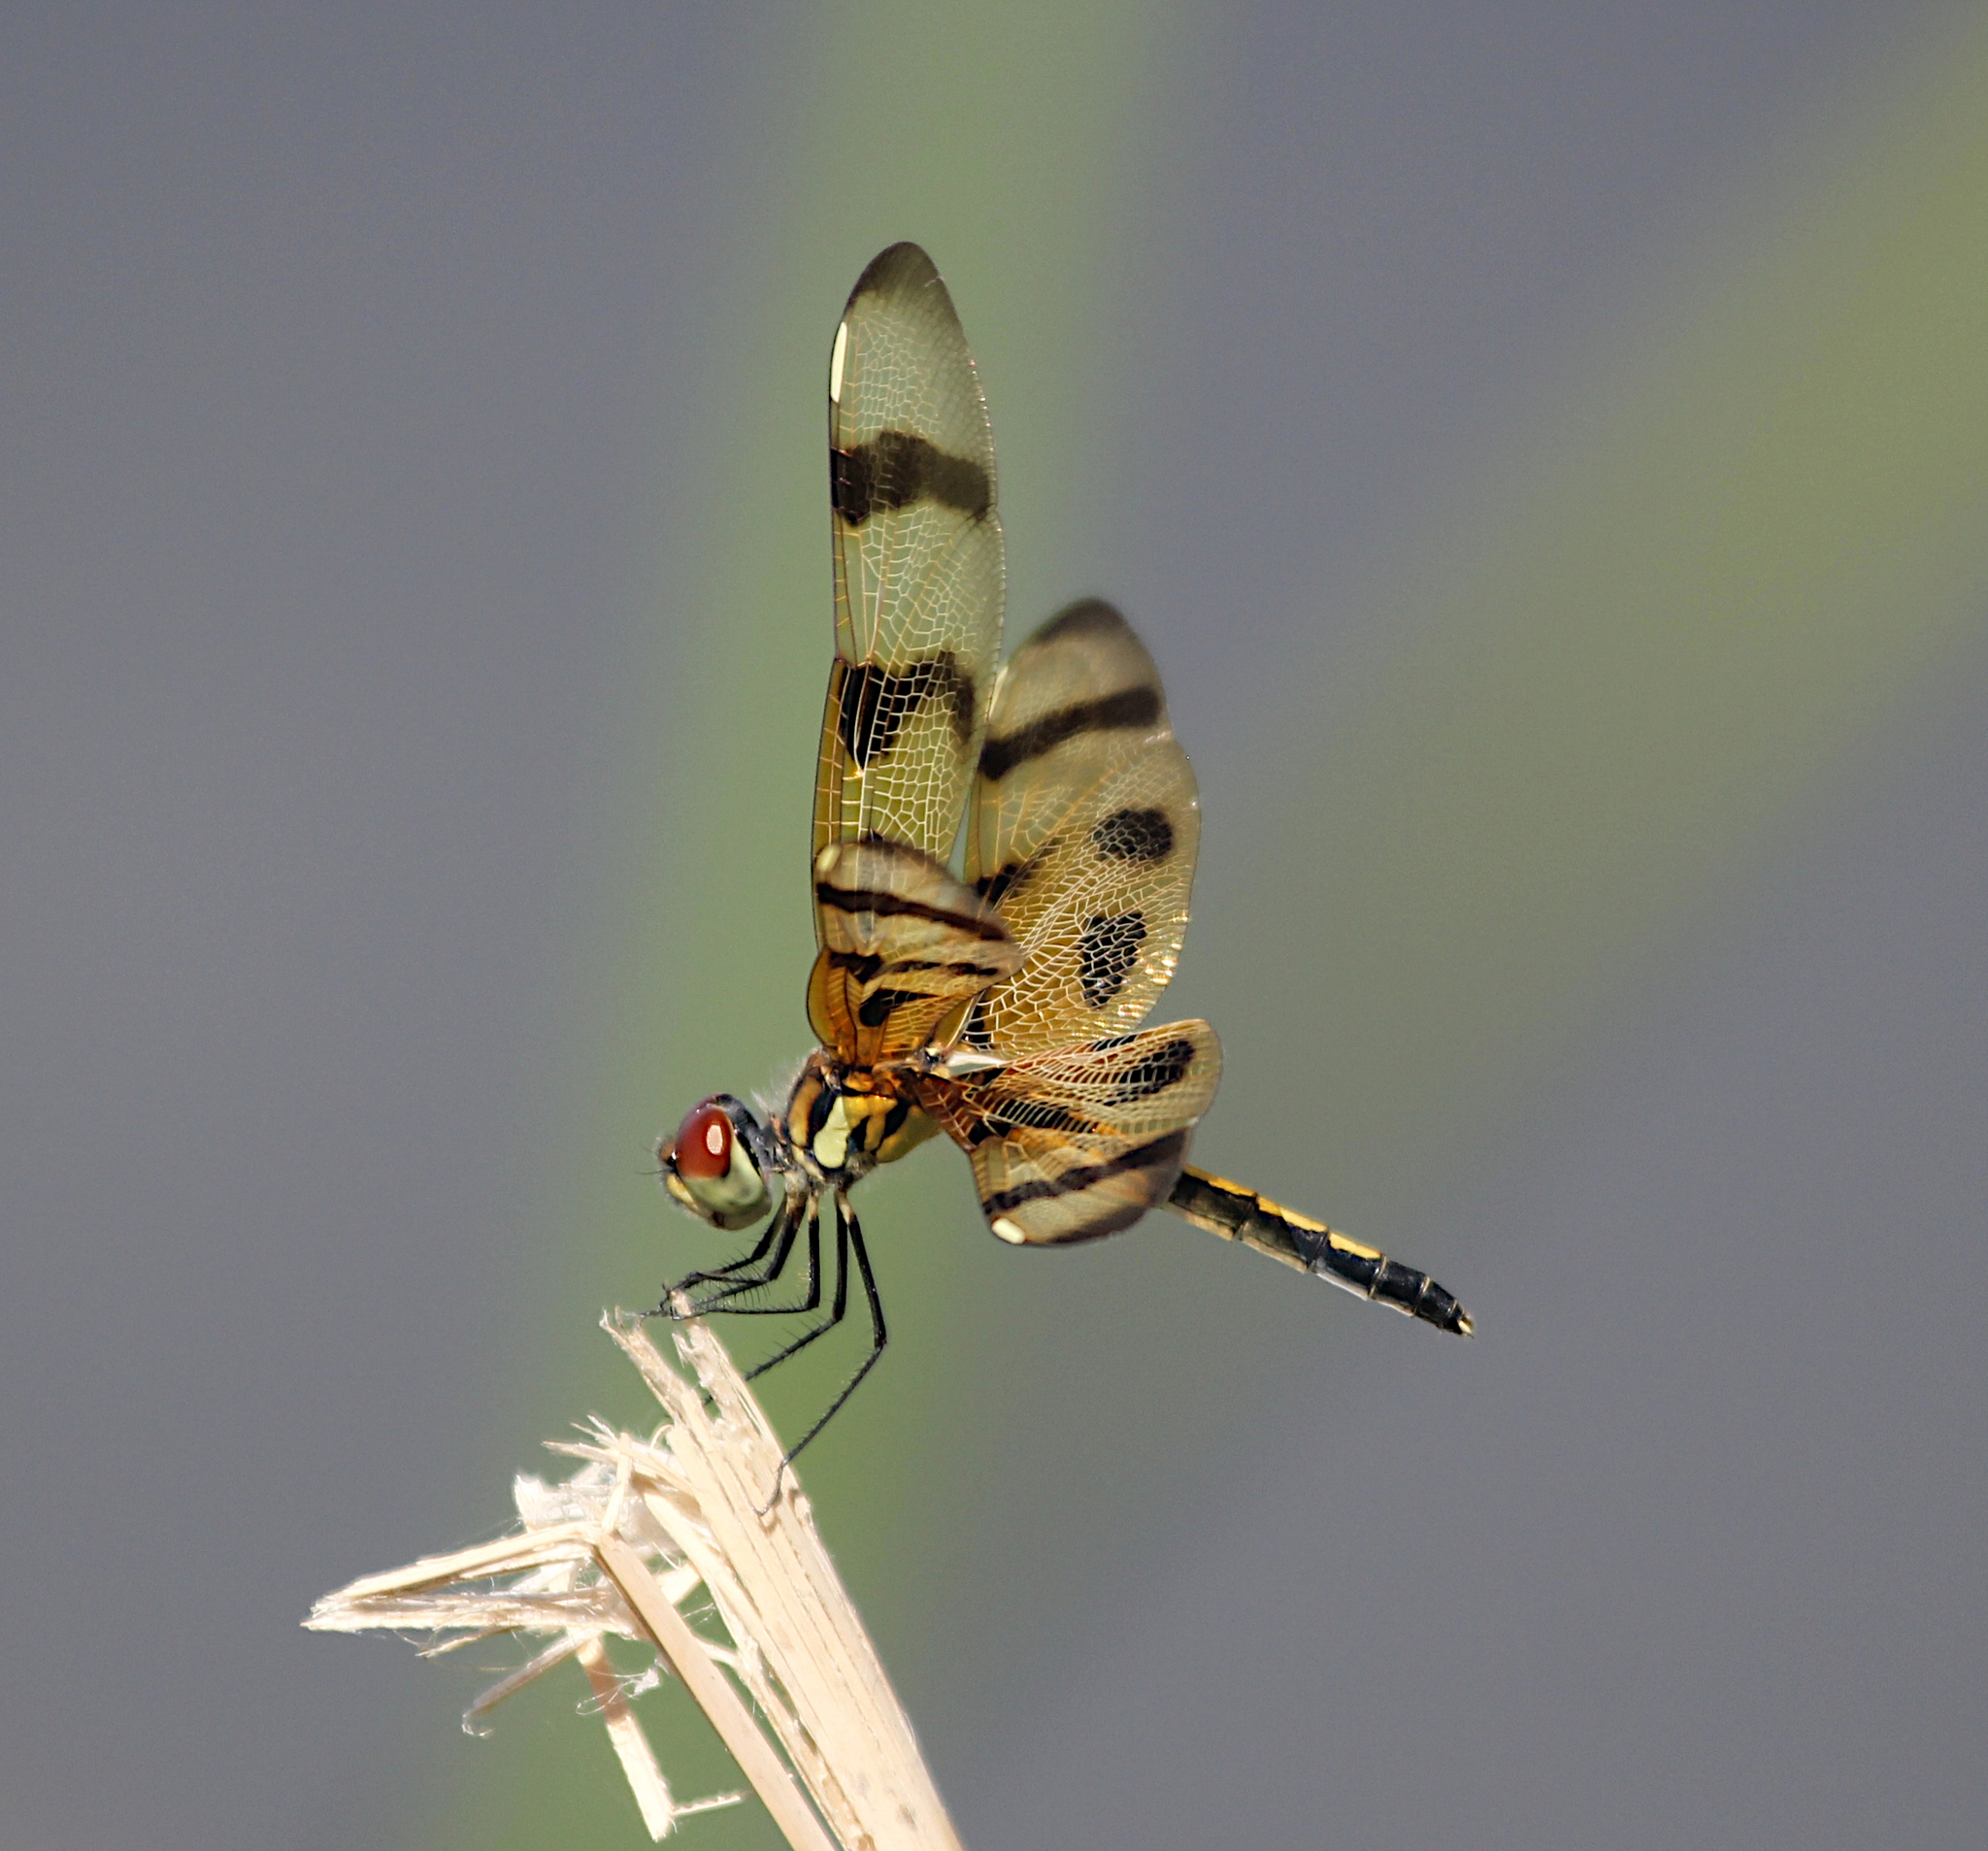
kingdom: Animalia
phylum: Arthropoda
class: Insecta
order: Odonata
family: Libellulidae
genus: Celithemis
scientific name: Celithemis eponina
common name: Halloween pennant
